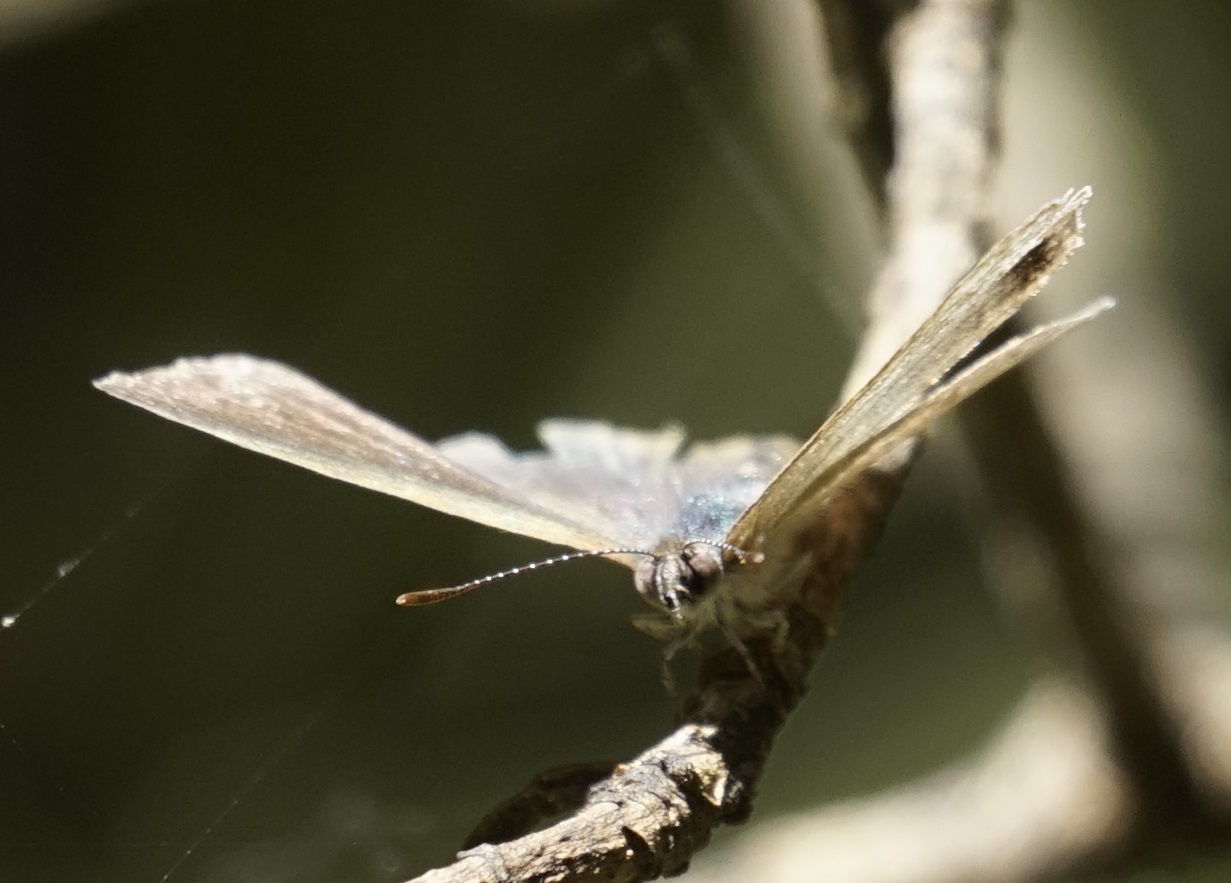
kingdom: Animalia
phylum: Arthropoda
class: Insecta
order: Lepidoptera
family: Lycaenidae
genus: Candalides
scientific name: Candalides
